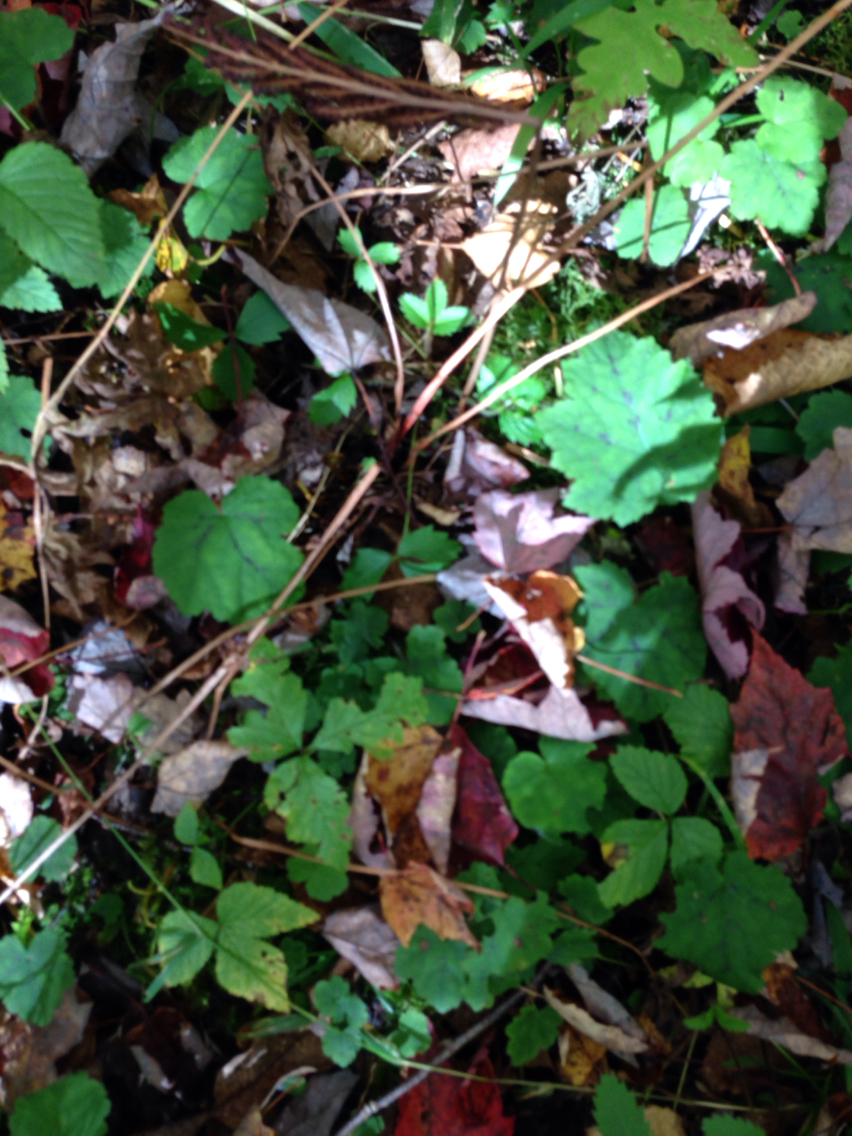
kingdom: Plantae
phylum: Tracheophyta
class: Magnoliopsida
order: Saxifragales
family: Saxifragaceae
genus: Tiarella
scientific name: Tiarella stolonifera
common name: Stoloniferous foamflower
